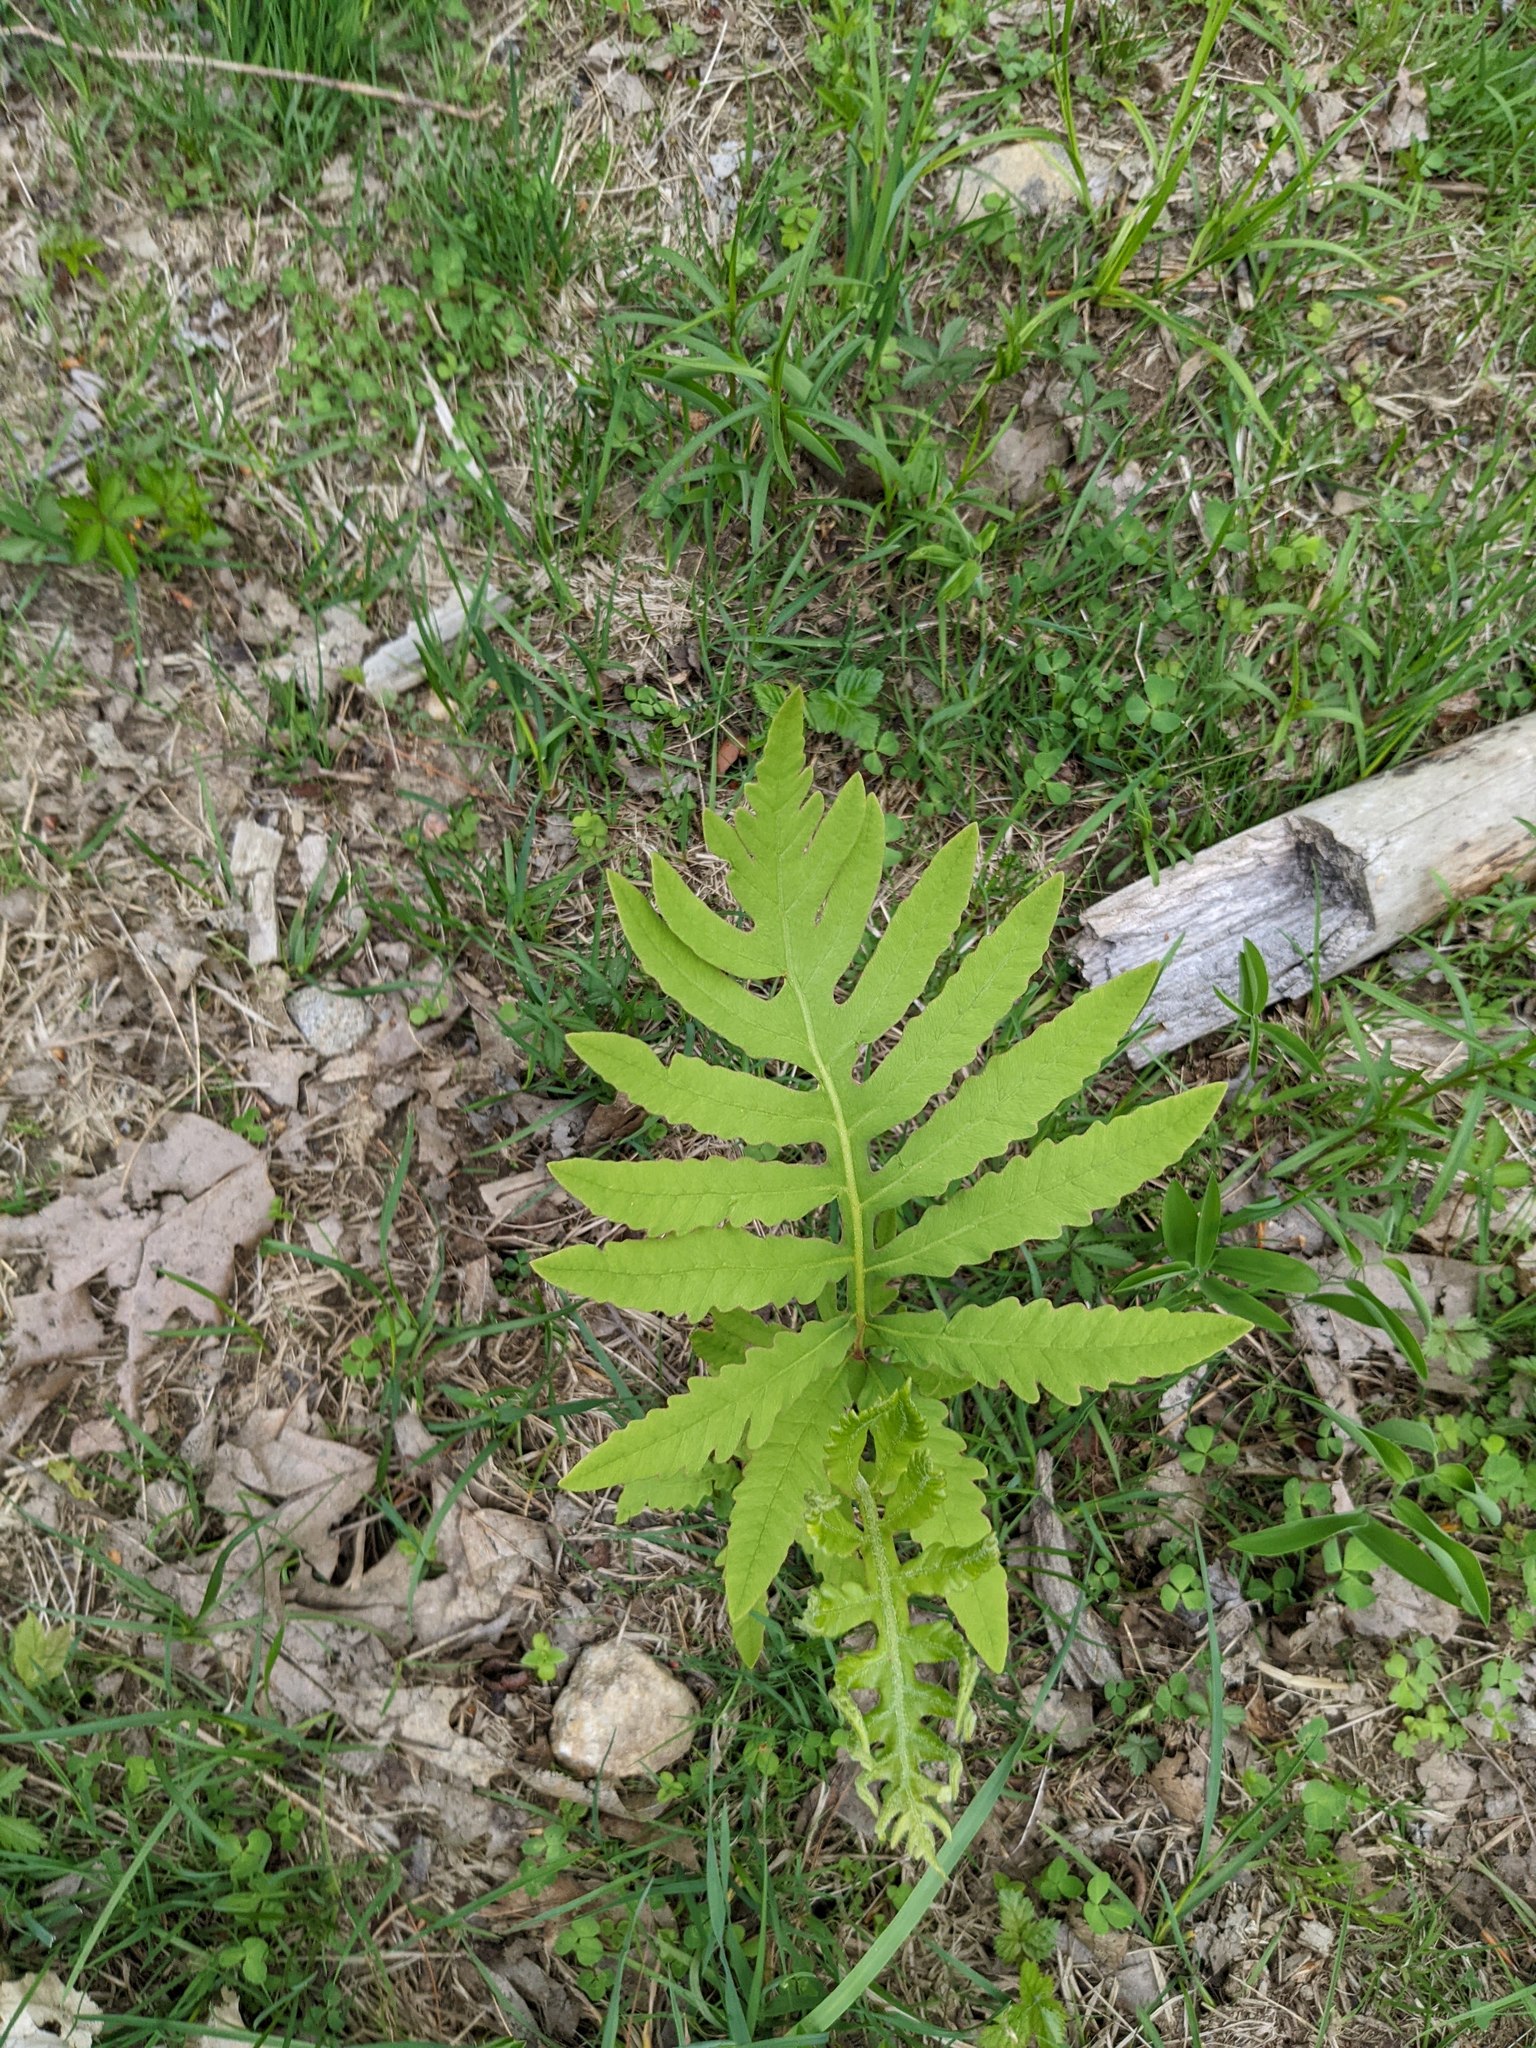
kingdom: Plantae
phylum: Tracheophyta
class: Polypodiopsida
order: Polypodiales
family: Onocleaceae
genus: Onoclea
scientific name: Onoclea sensibilis
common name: Sensitive fern
